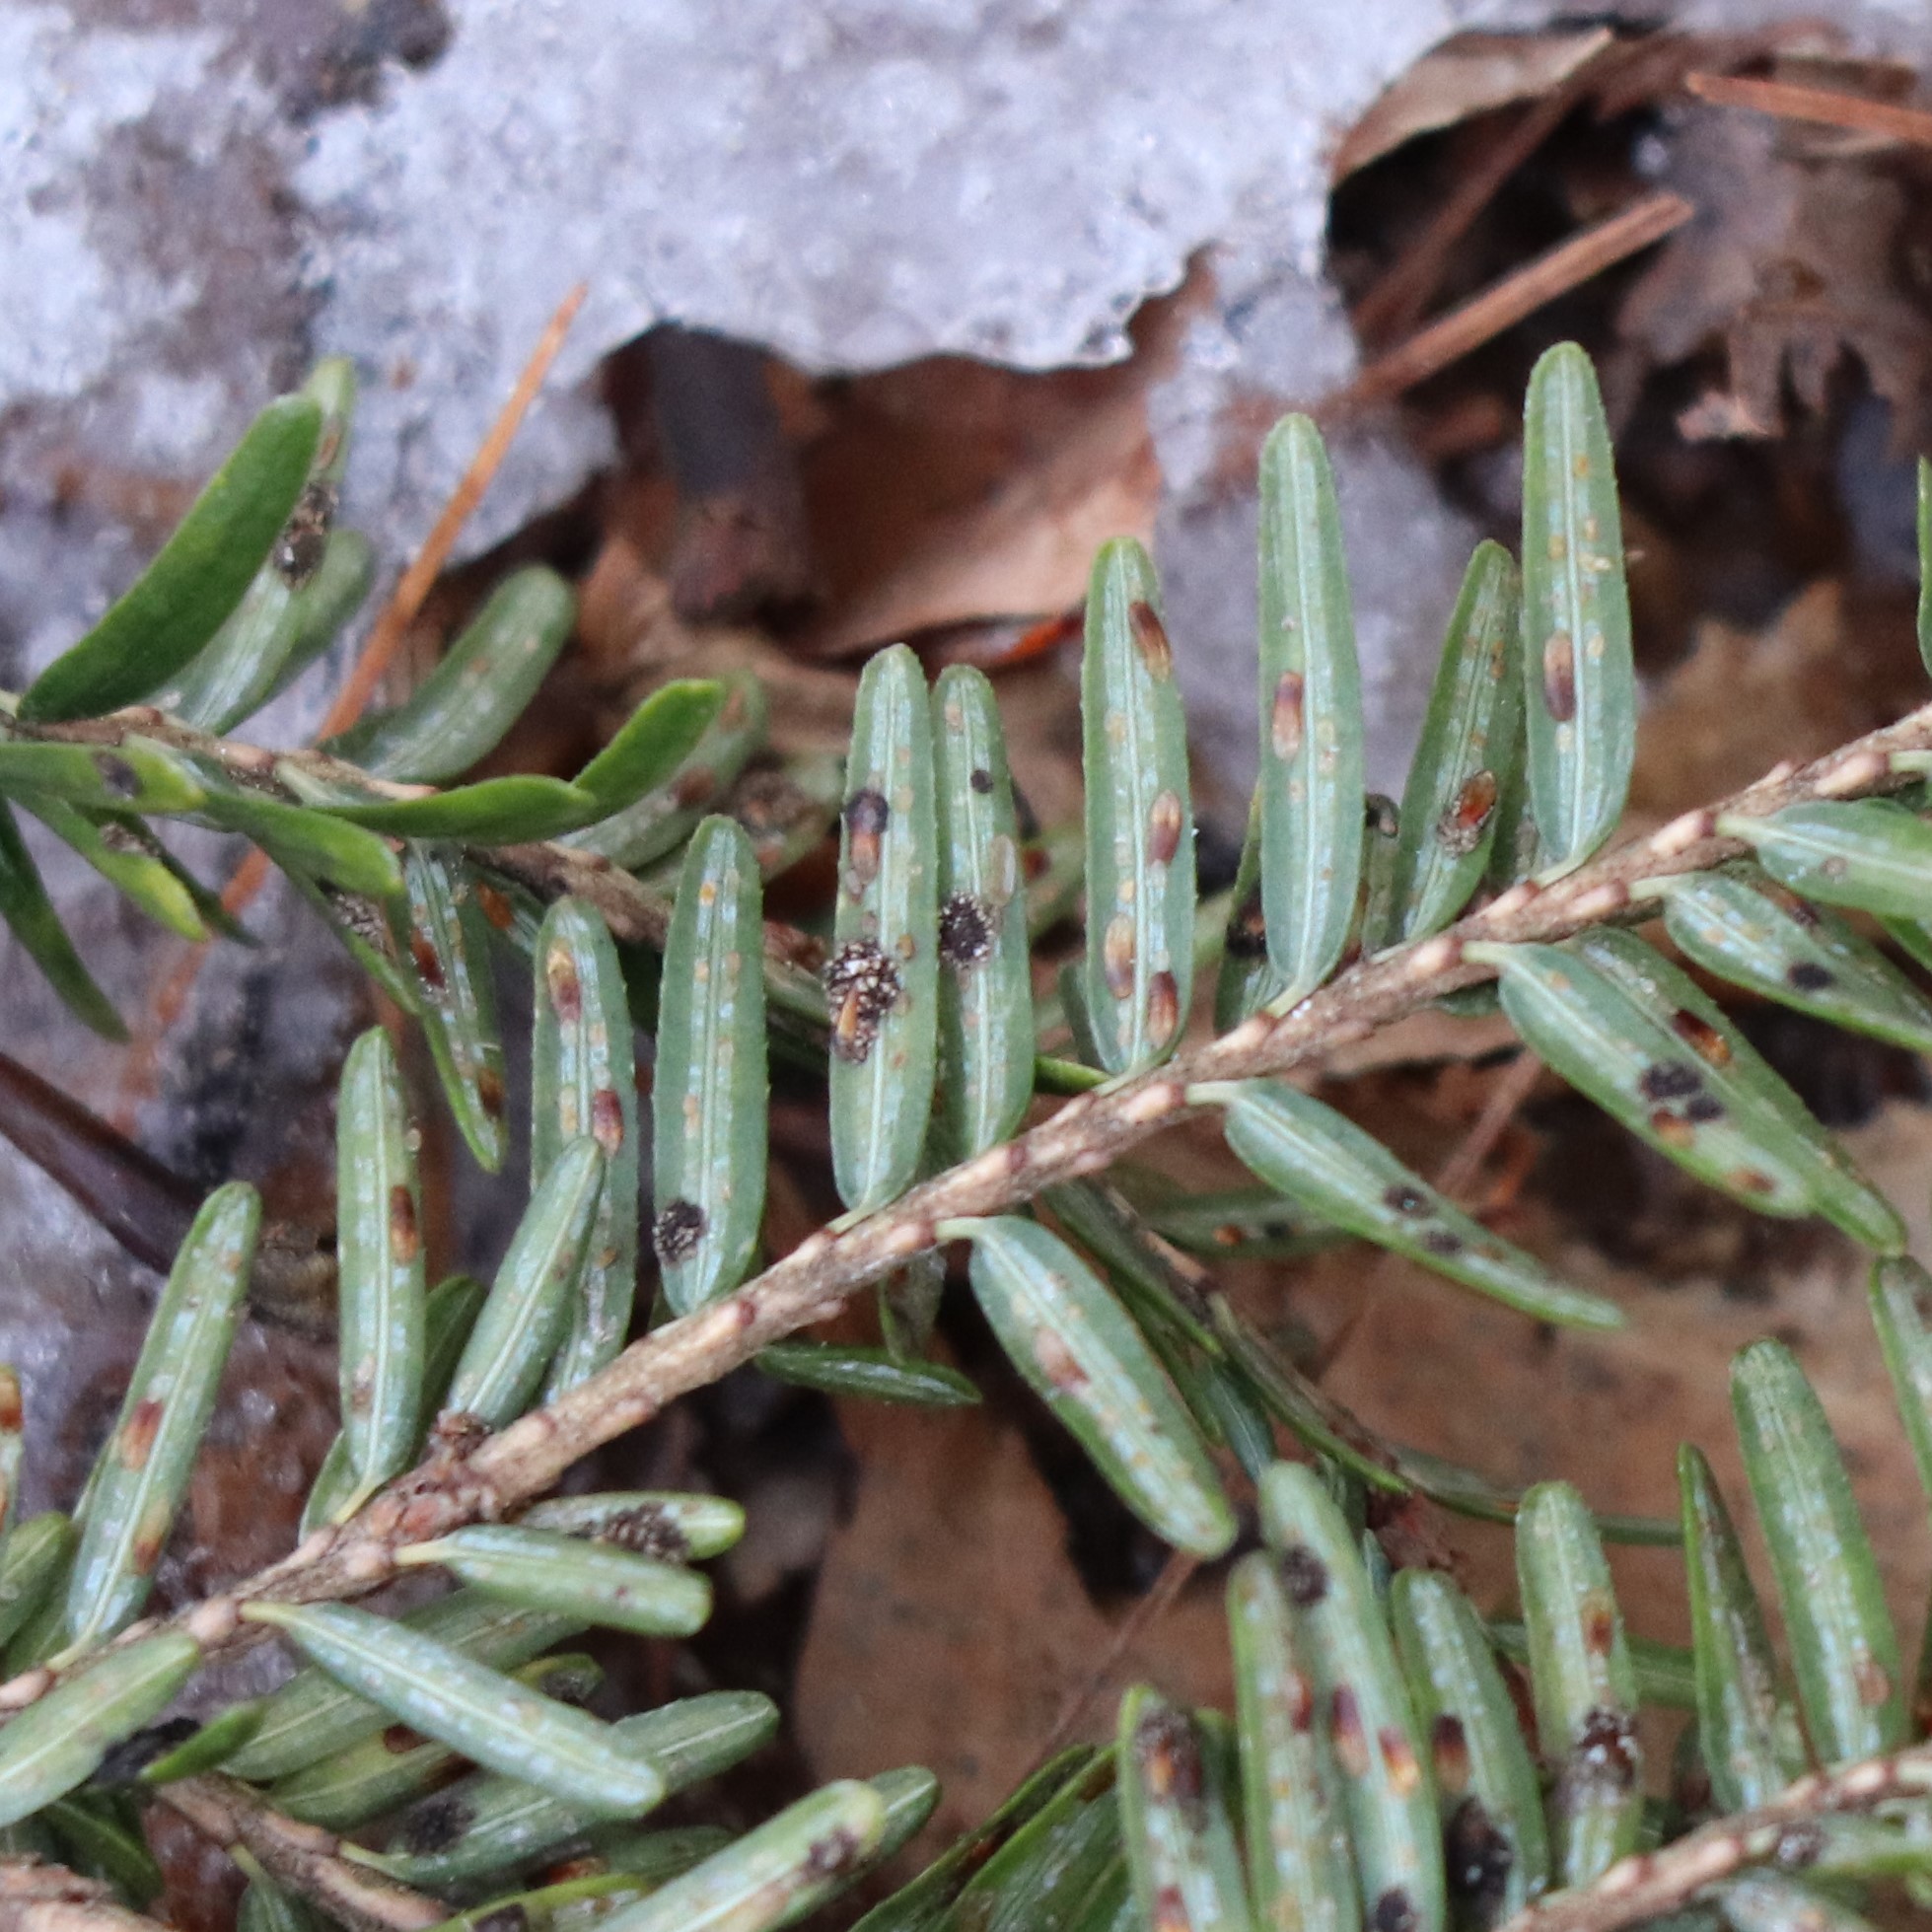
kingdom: Animalia
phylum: Arthropoda
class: Insecta
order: Hemiptera
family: Diaspididae
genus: Fiorinia
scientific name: Fiorinia externa
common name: Elongate hemlock scale
